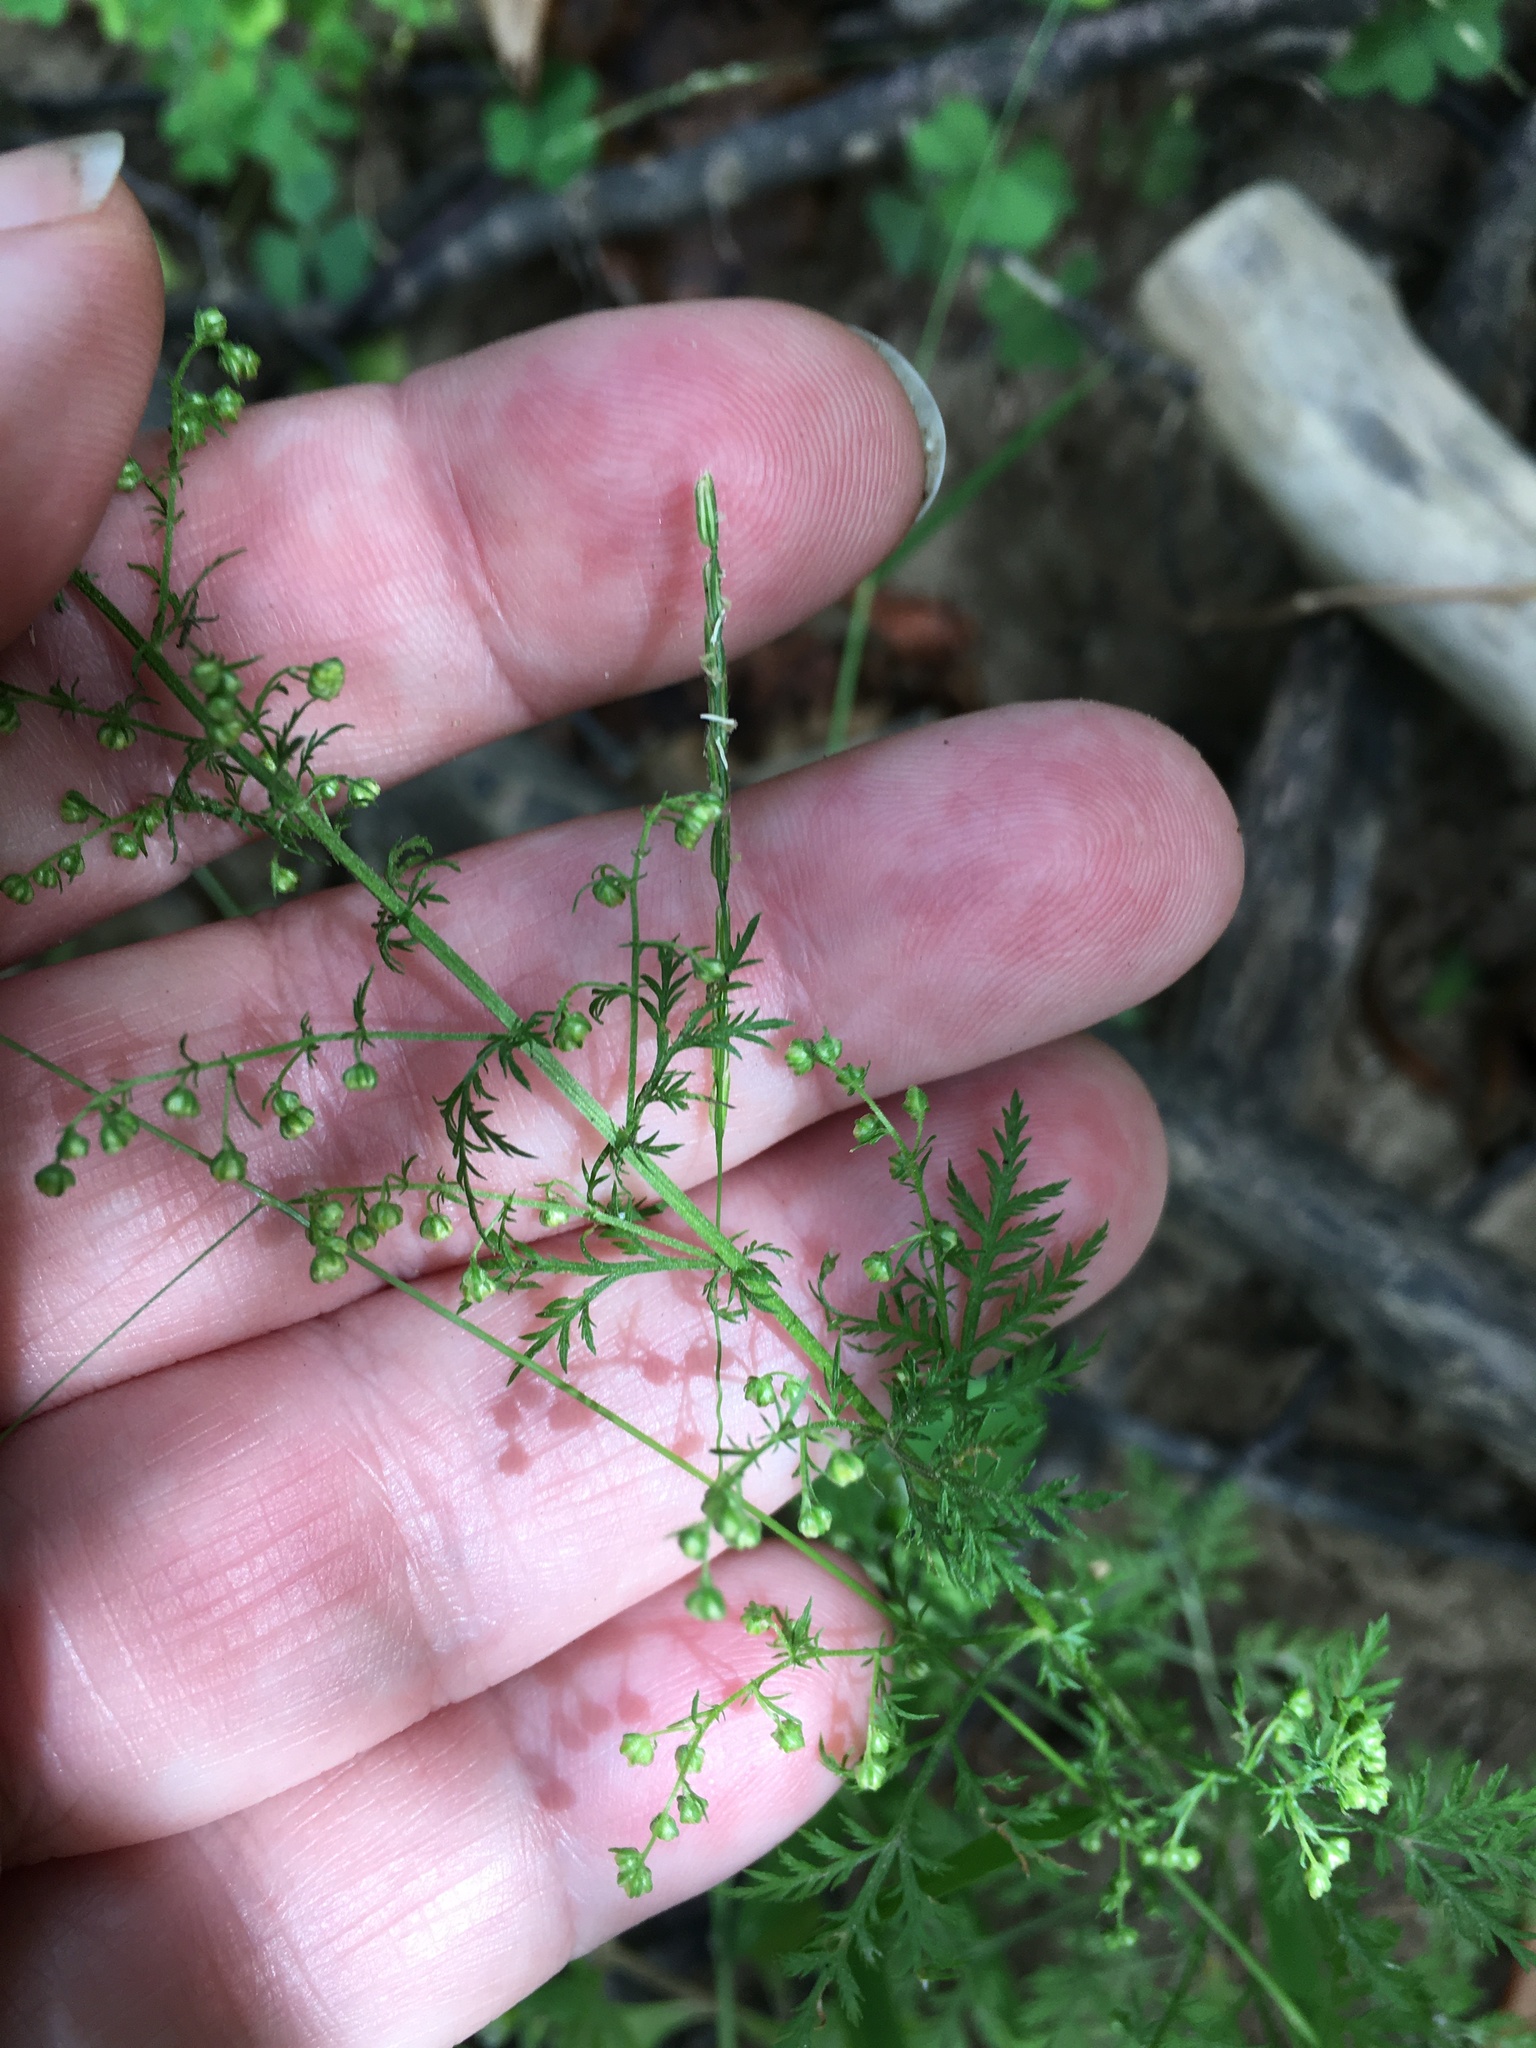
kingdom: Plantae
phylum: Tracheophyta
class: Magnoliopsida
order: Asterales
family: Asteraceae
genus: Artemisia
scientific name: Artemisia annua
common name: Sweet sagewort
